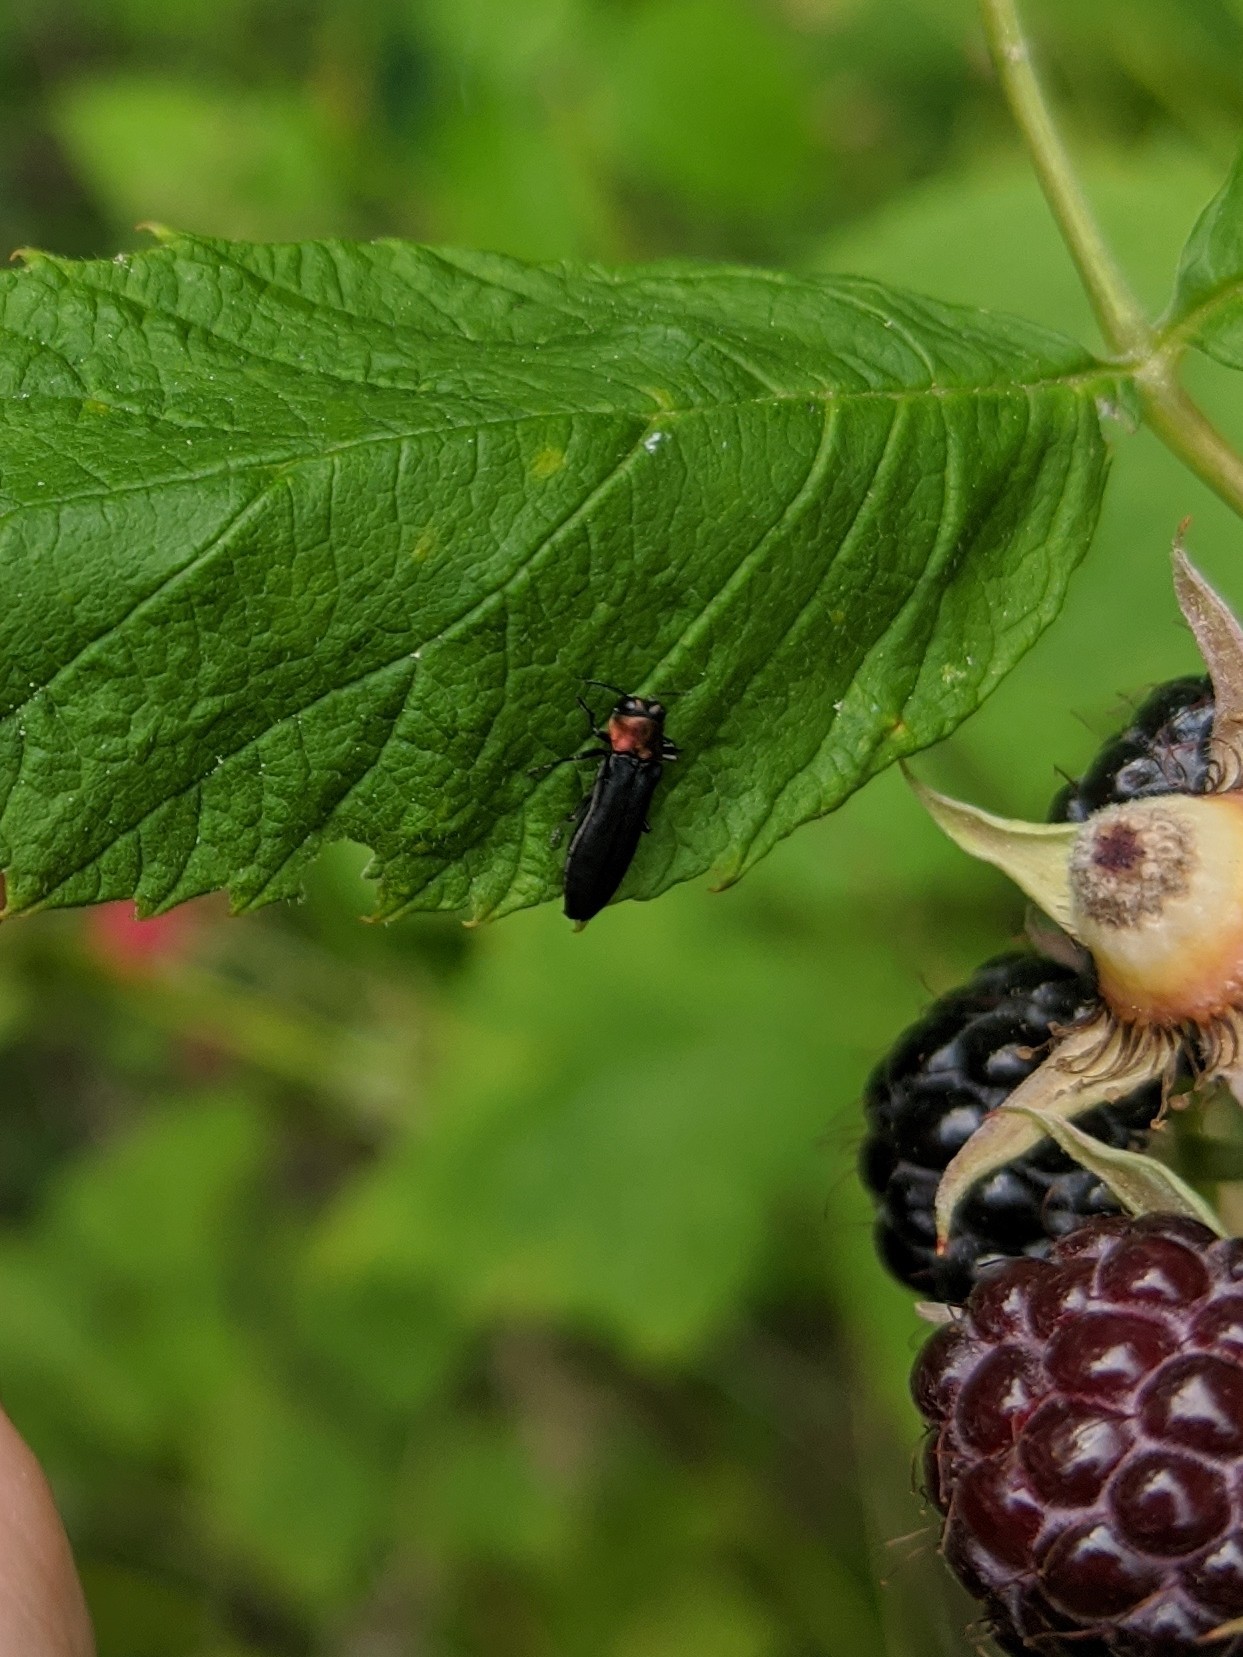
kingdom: Animalia
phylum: Arthropoda
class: Insecta
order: Coleoptera
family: Buprestidae
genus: Agrilus
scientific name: Agrilus ruficollis
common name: Red-necked cane borer beetle
